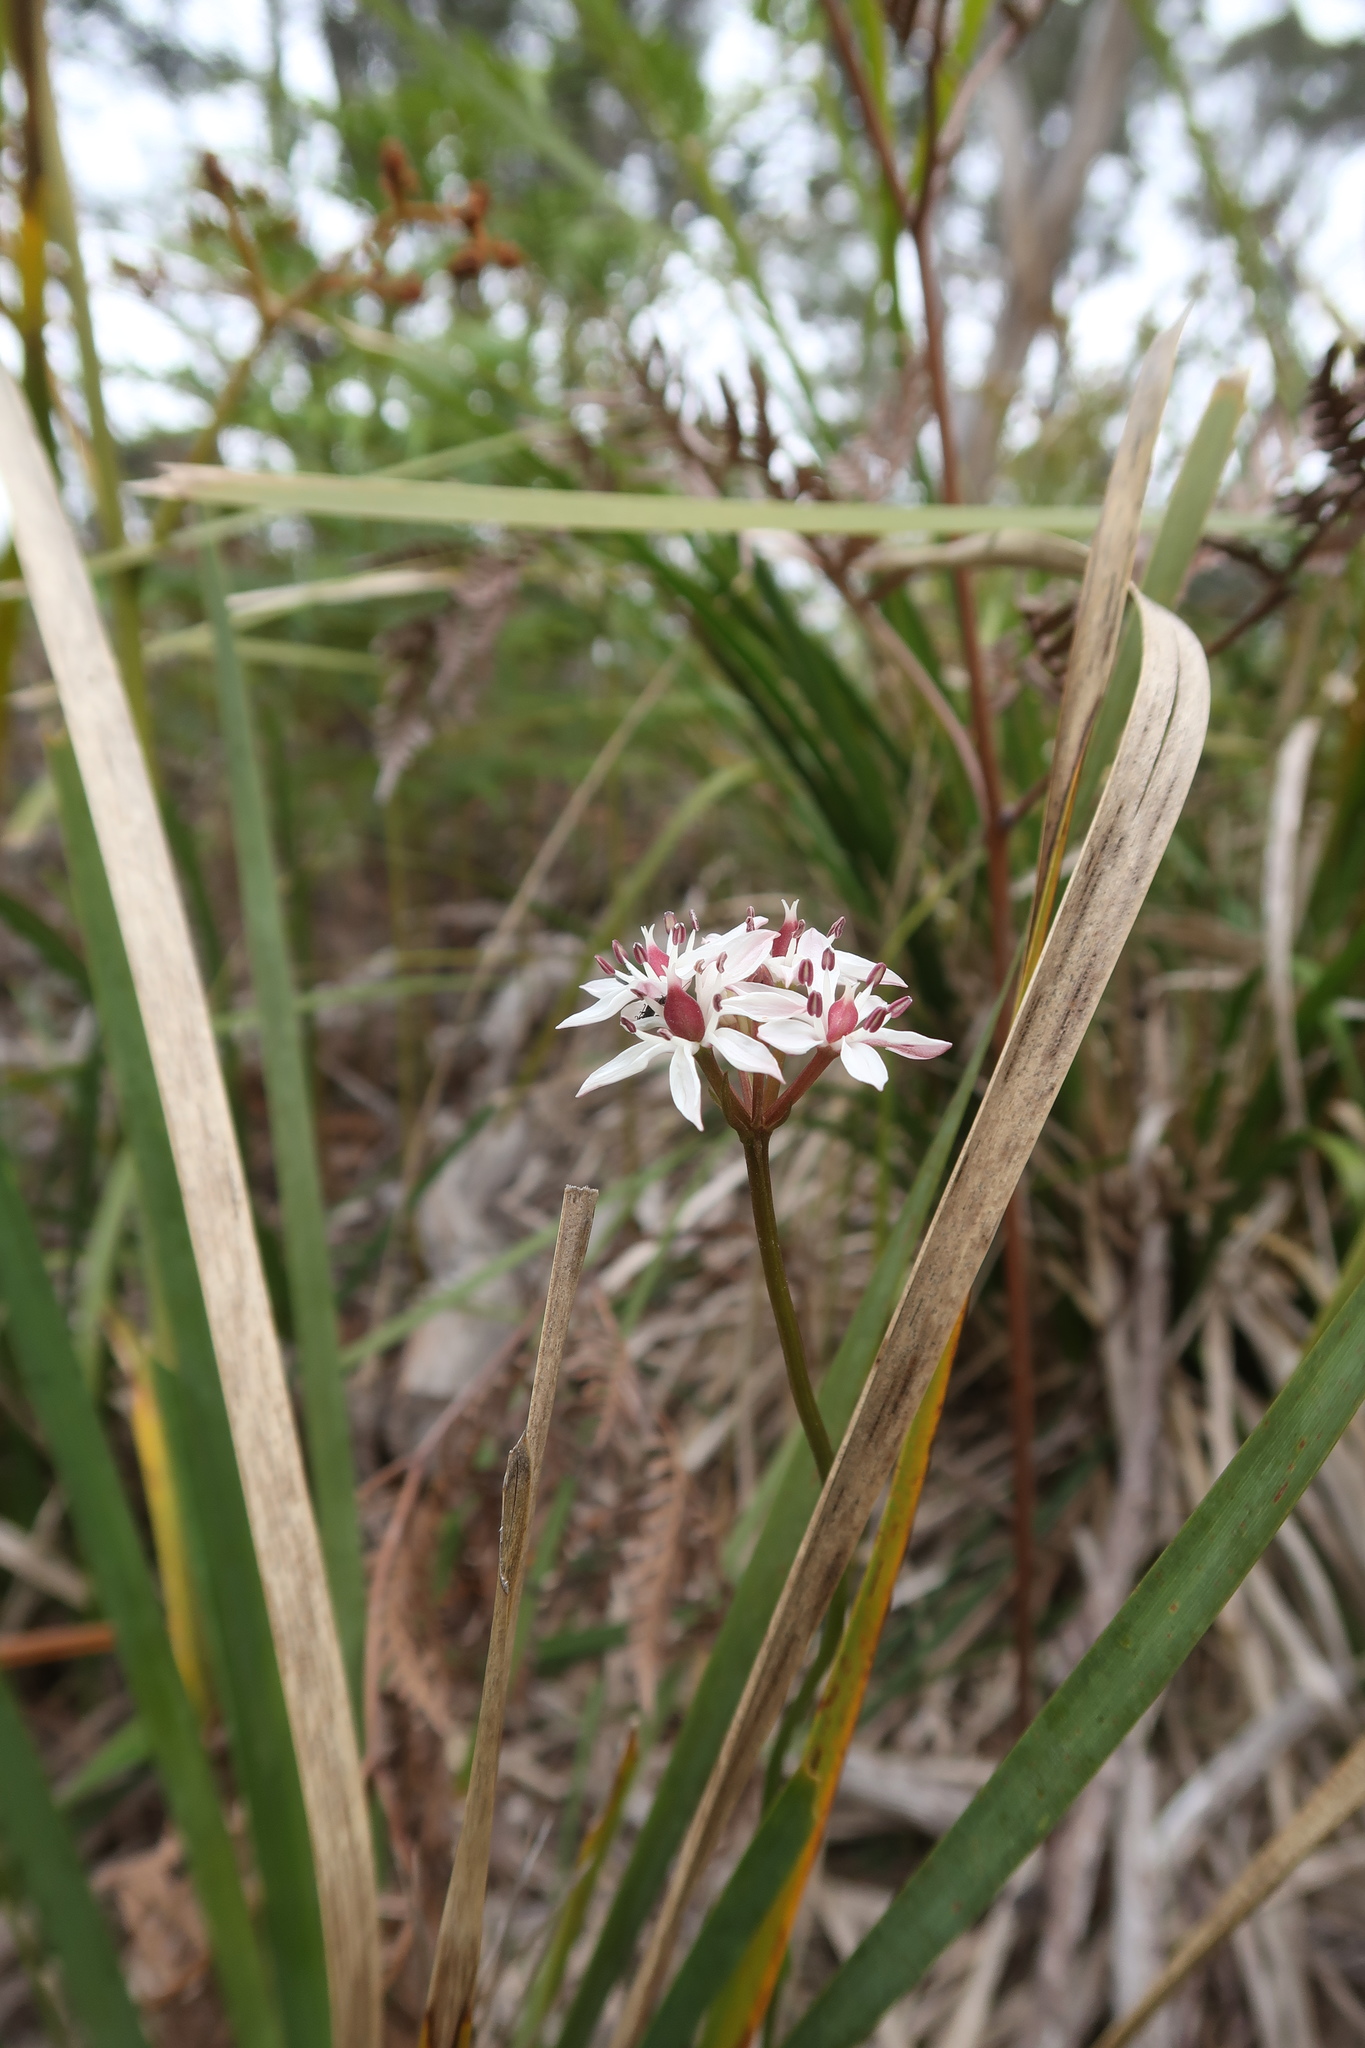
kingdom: Plantae
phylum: Tracheophyta
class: Liliopsida
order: Liliales
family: Colchicaceae
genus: Burchardia
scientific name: Burchardia umbellata
